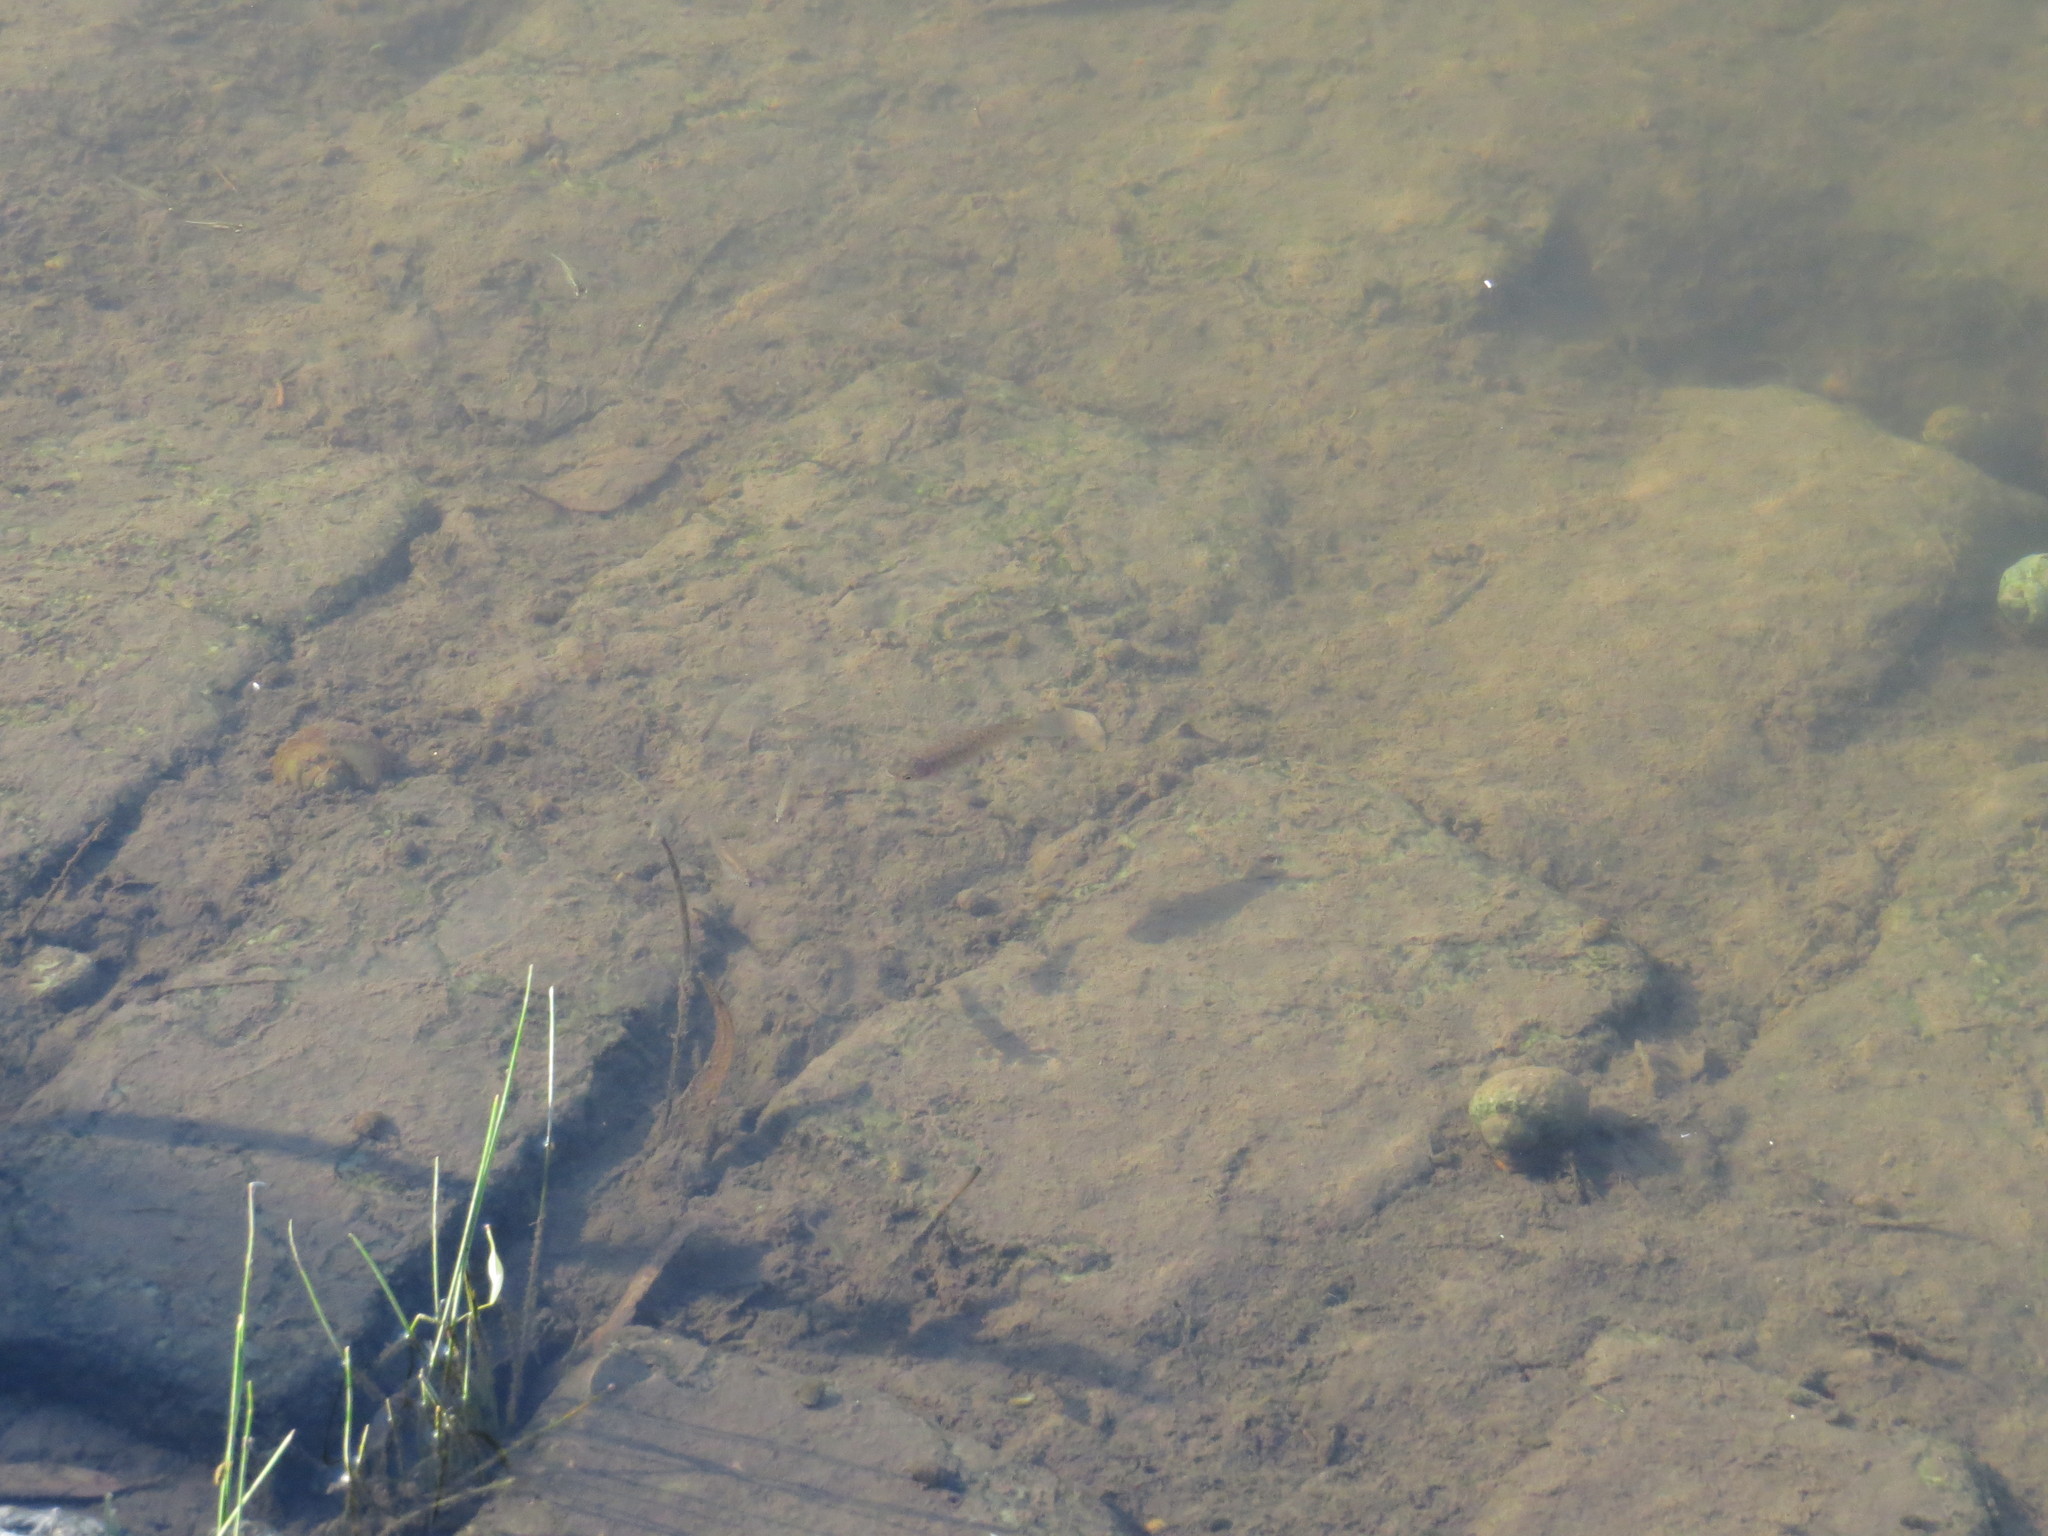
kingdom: Animalia
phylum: Chordata
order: Cyprinodontiformes
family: Anablepidae
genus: Jenynsia
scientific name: Jenynsia lineata
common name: Onesided livebearer
